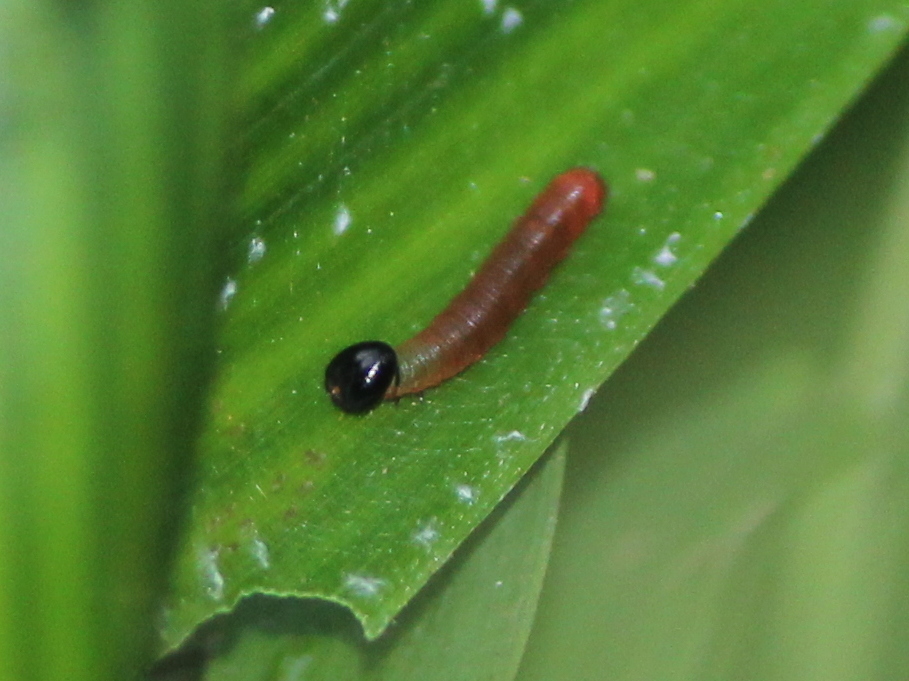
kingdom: Animalia
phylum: Arthropoda
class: Insecta
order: Lepidoptera
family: Hesperiidae
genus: Matapa
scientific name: Matapa aria
